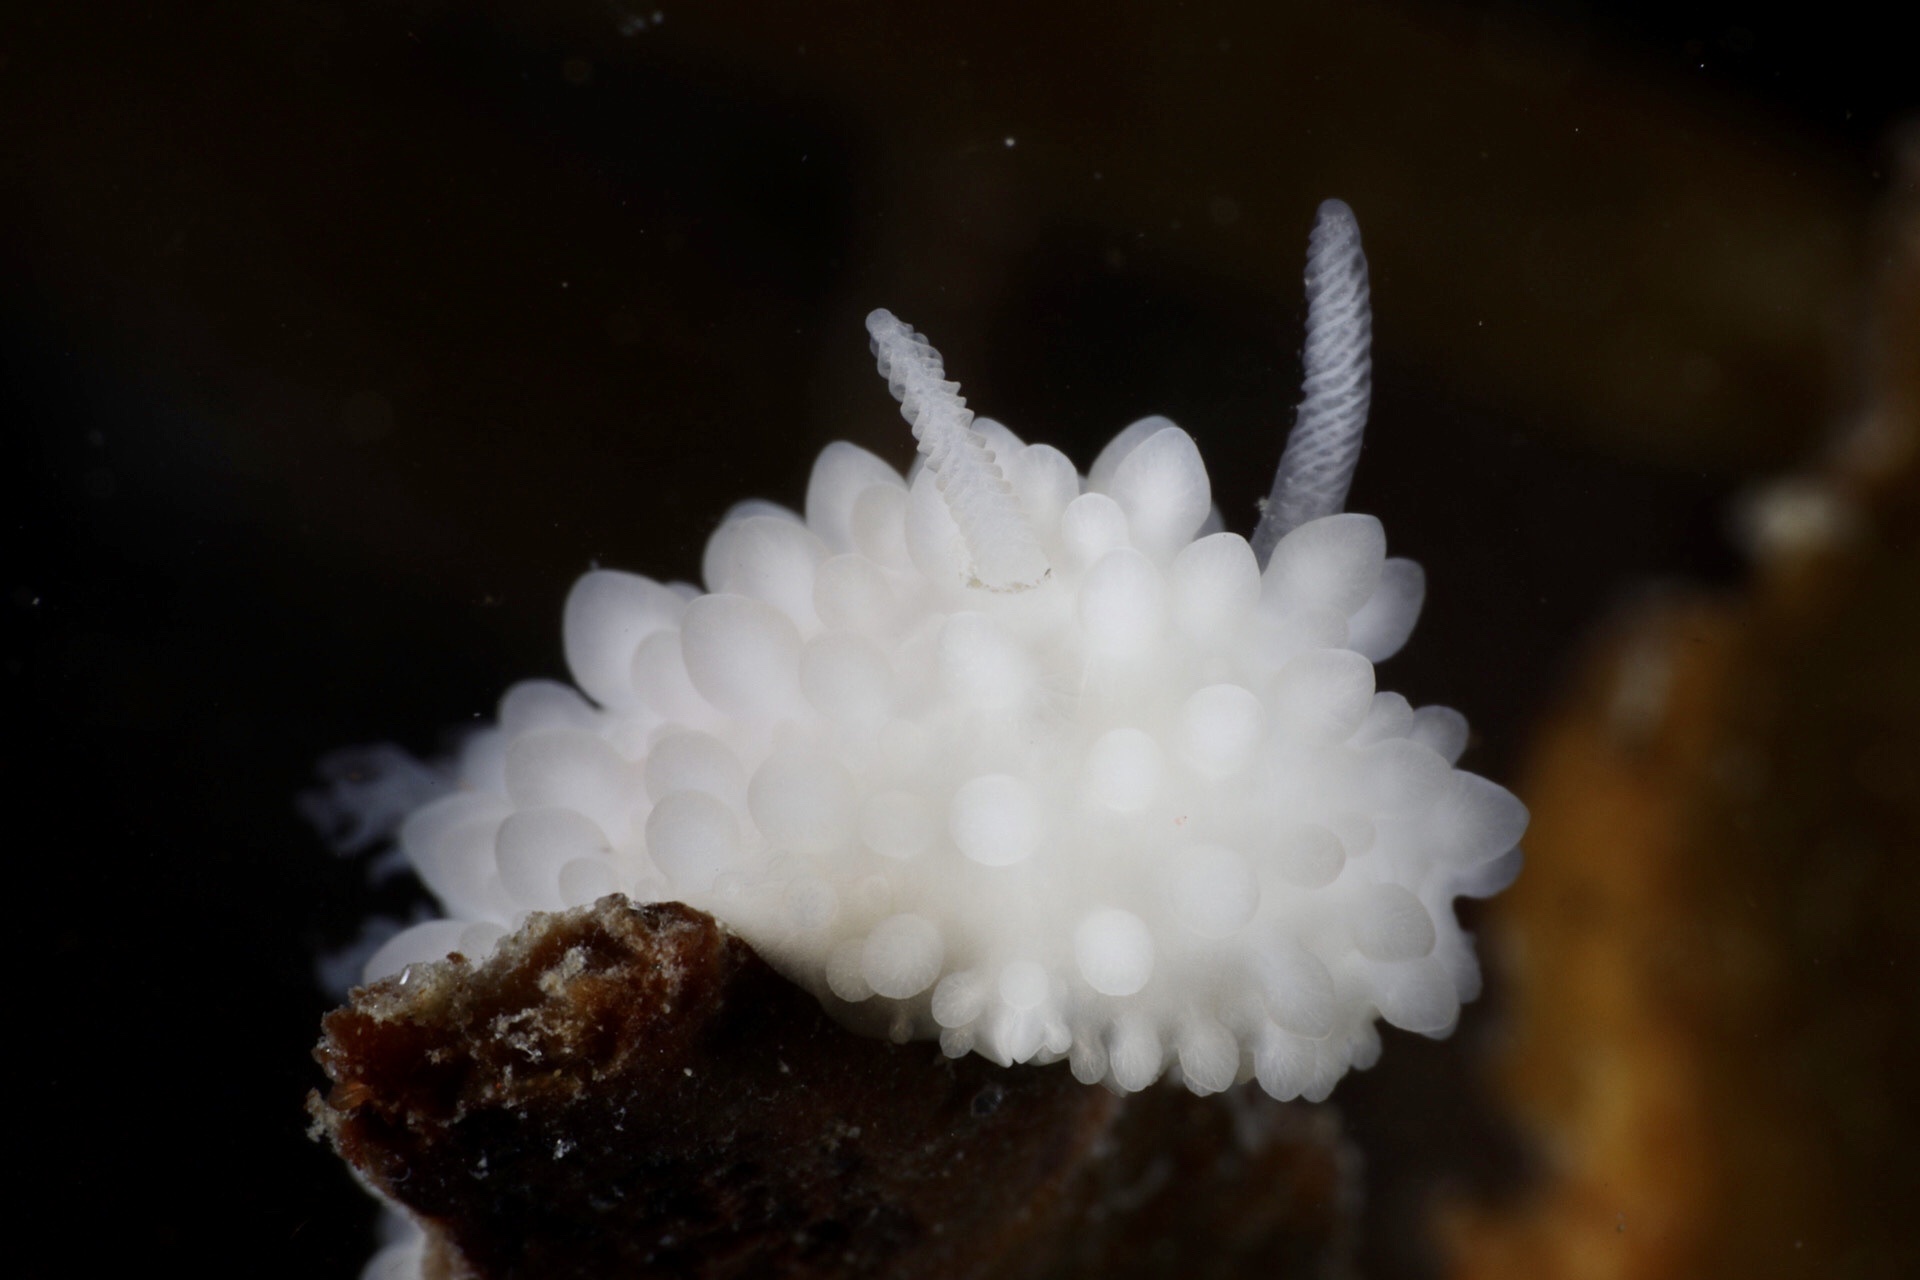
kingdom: Animalia
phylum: Mollusca
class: Gastropoda
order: Nudibranchia
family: Onchidorididae
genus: Adalaria
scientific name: Adalaria loveni
